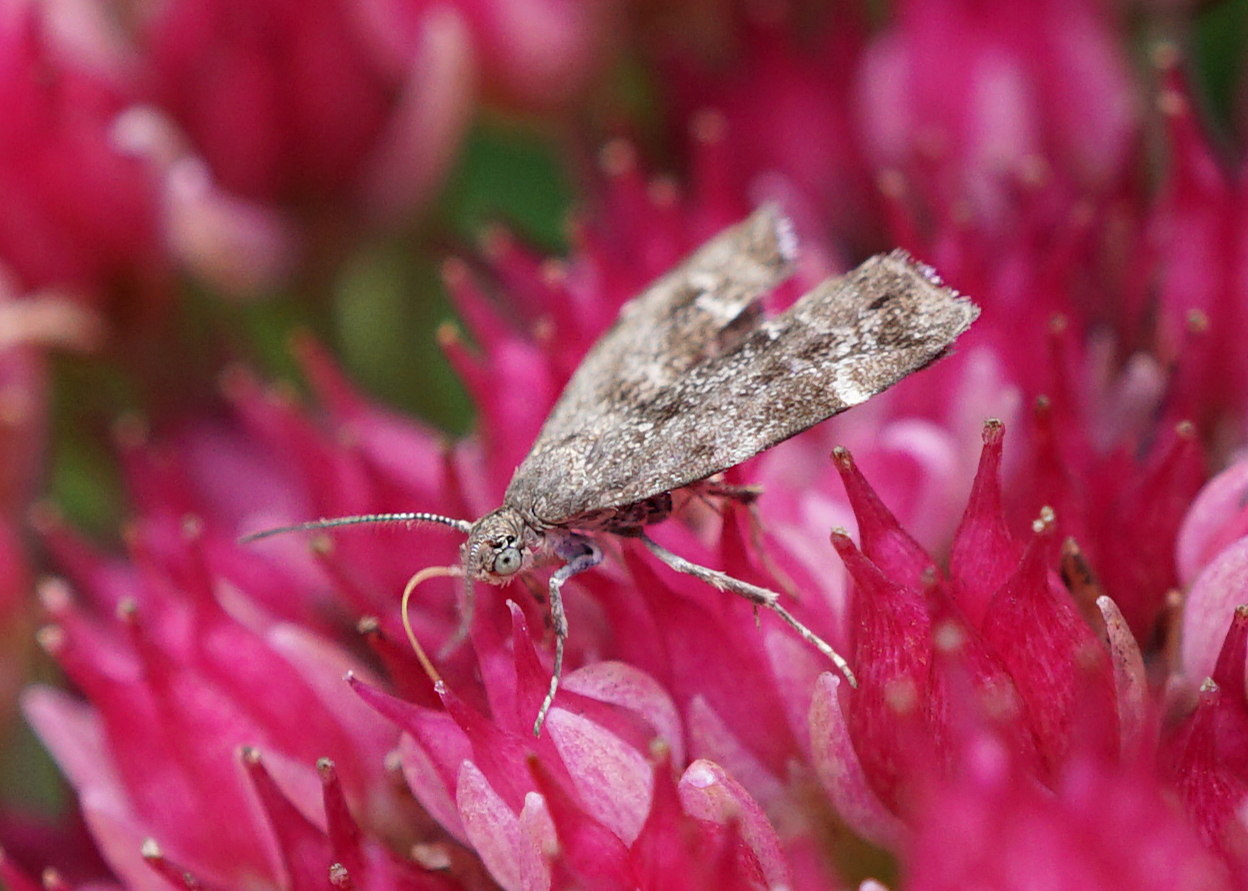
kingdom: Animalia
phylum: Arthropoda
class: Insecta
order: Lepidoptera
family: Choreutidae
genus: Anthophila
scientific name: Anthophila fabriciana
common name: Nettle-tap
